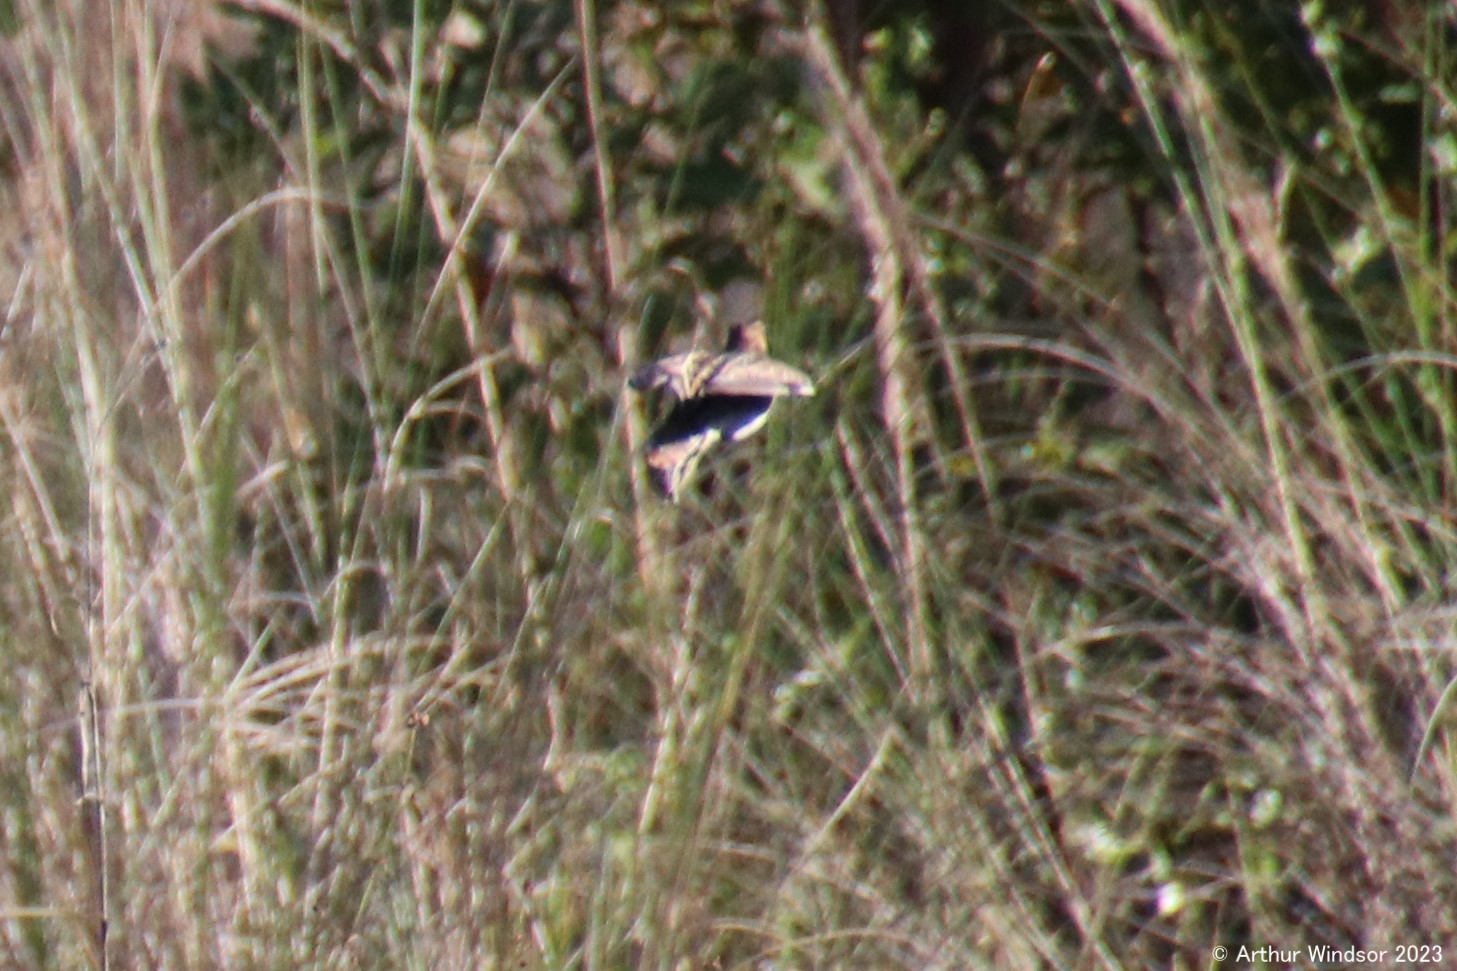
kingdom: Animalia
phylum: Chordata
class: Aves
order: Charadriiformes
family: Scolopacidae
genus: Gallinago
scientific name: Gallinago delicata
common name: Wilson's snipe
